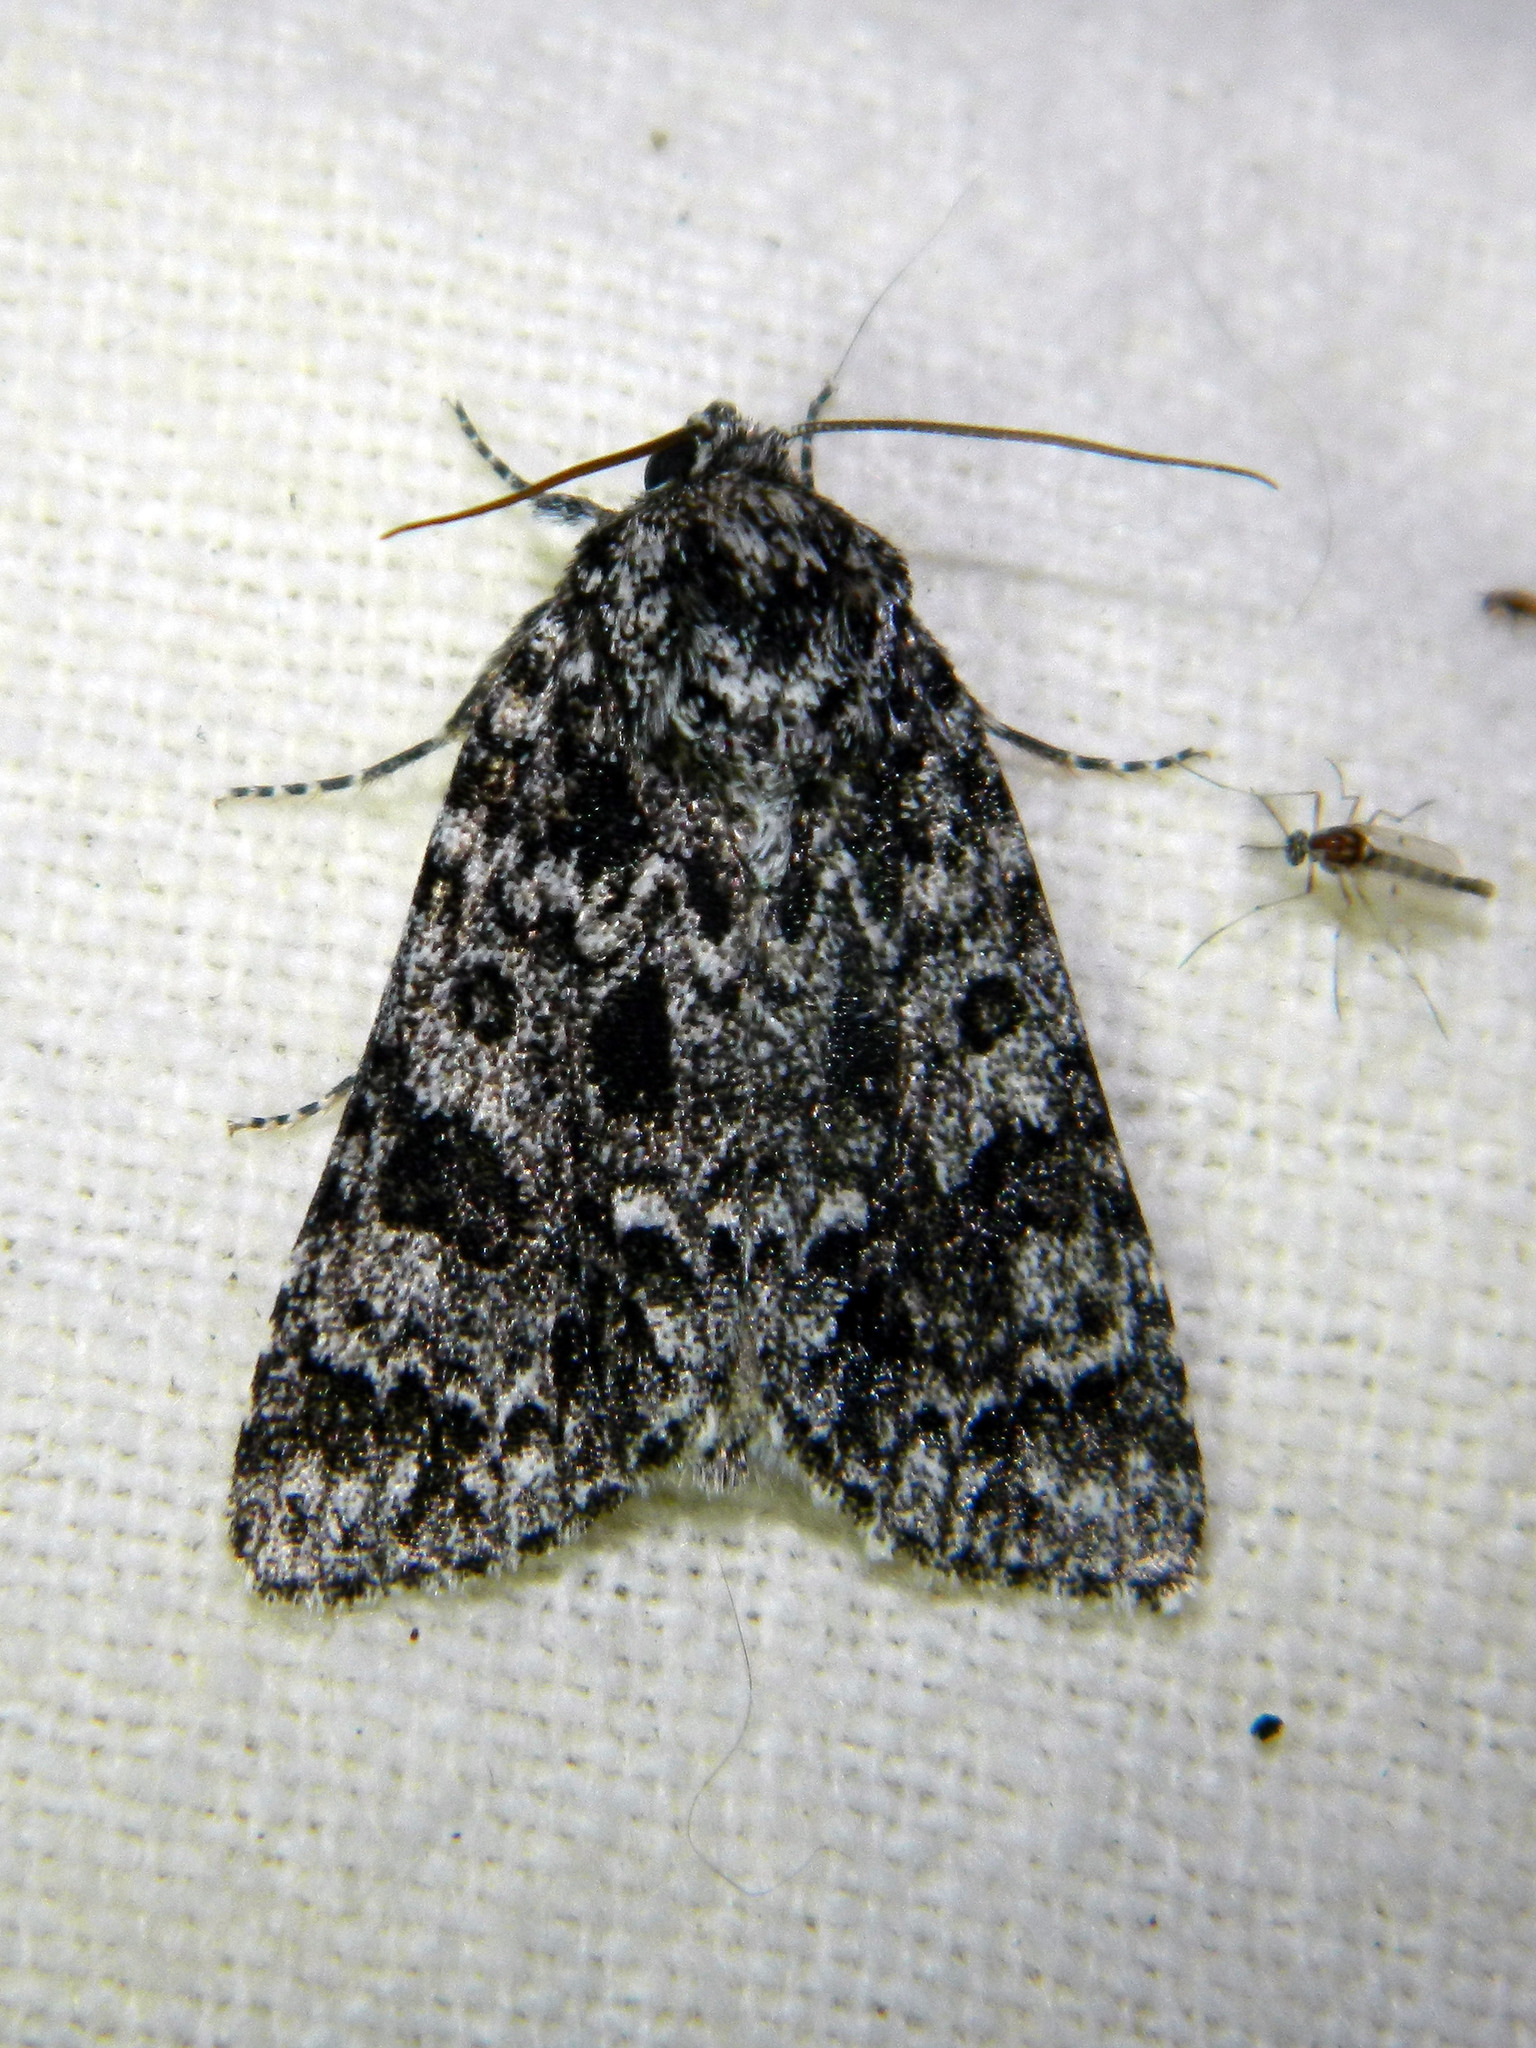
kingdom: Animalia
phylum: Arthropoda
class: Insecta
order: Lepidoptera
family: Noctuidae
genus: Acronicta
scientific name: Acronicta noctivaga
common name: Night-wandering dagger
